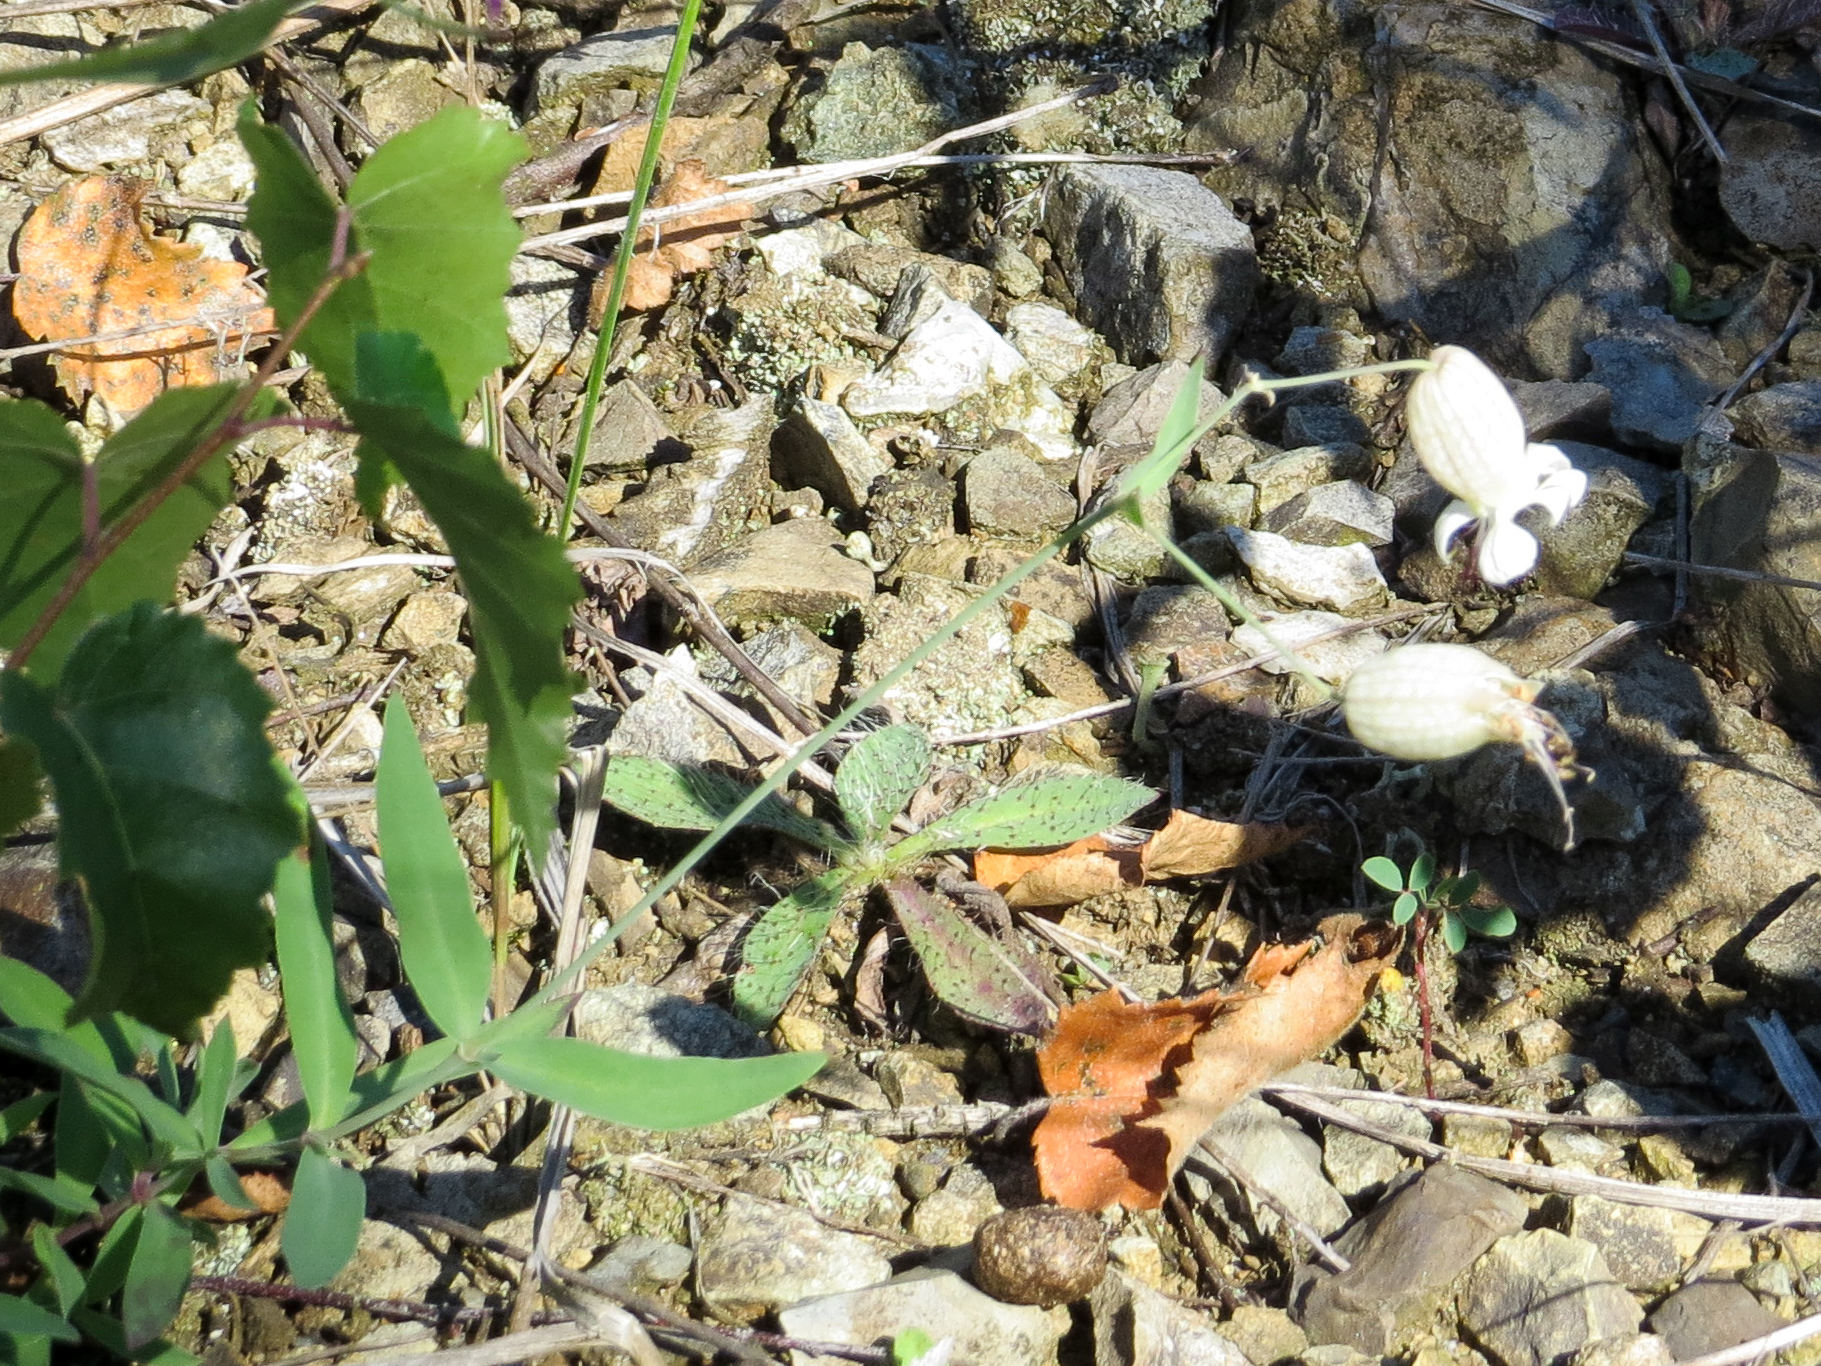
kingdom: Plantae
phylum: Tracheophyta
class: Magnoliopsida
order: Caryophyllales
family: Caryophyllaceae
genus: Silene
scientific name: Silene vulgaris
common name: Bladder campion
